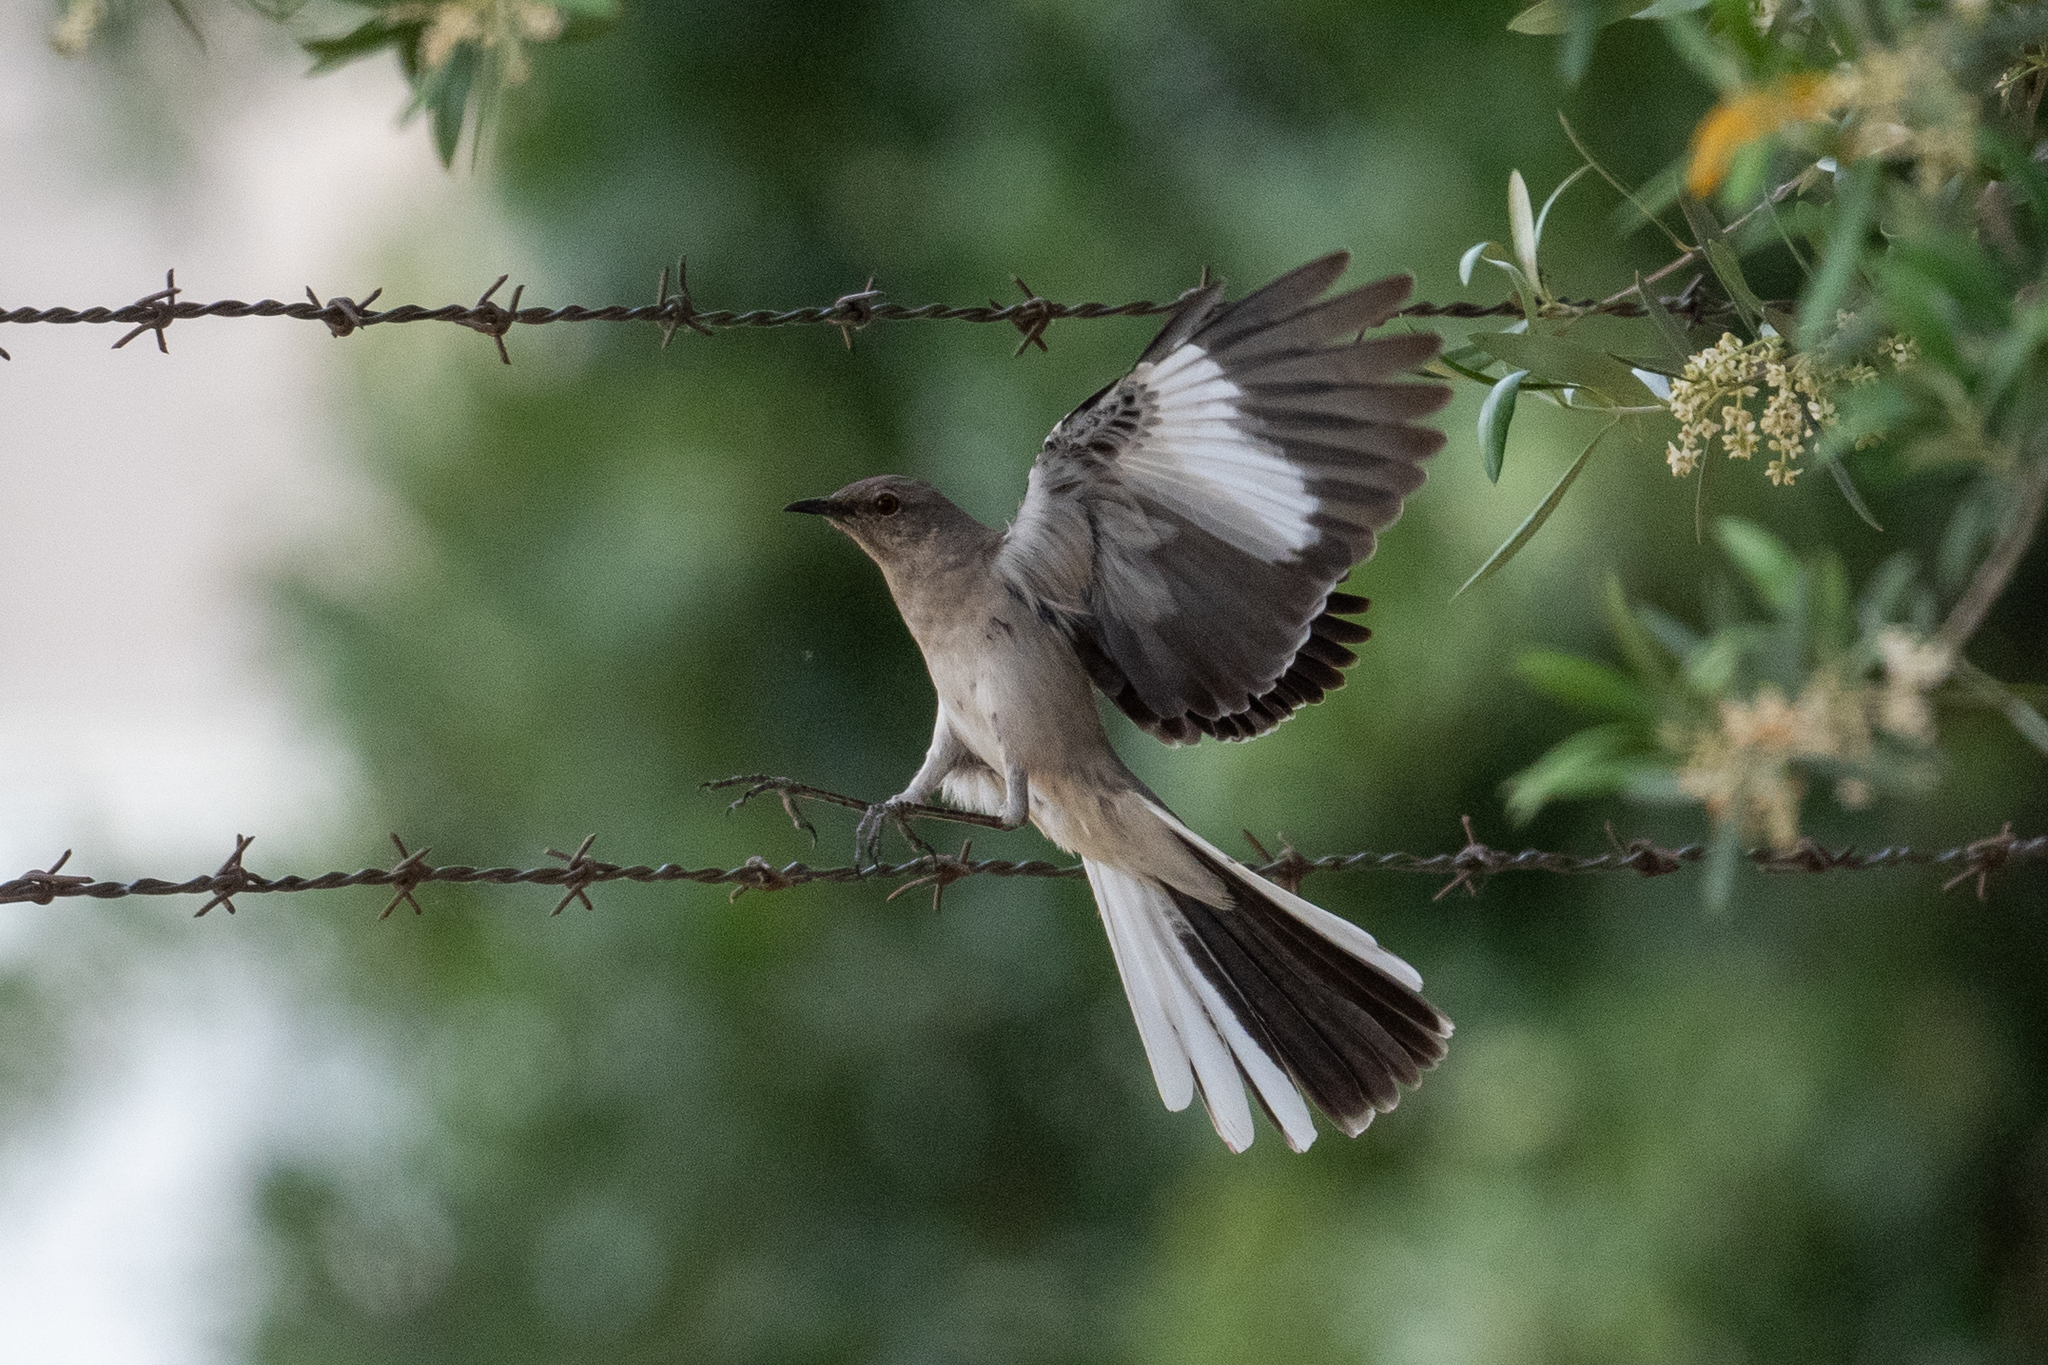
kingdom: Animalia
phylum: Chordata
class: Aves
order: Passeriformes
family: Mimidae
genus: Mimus
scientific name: Mimus polyglottos
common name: Northern mockingbird
